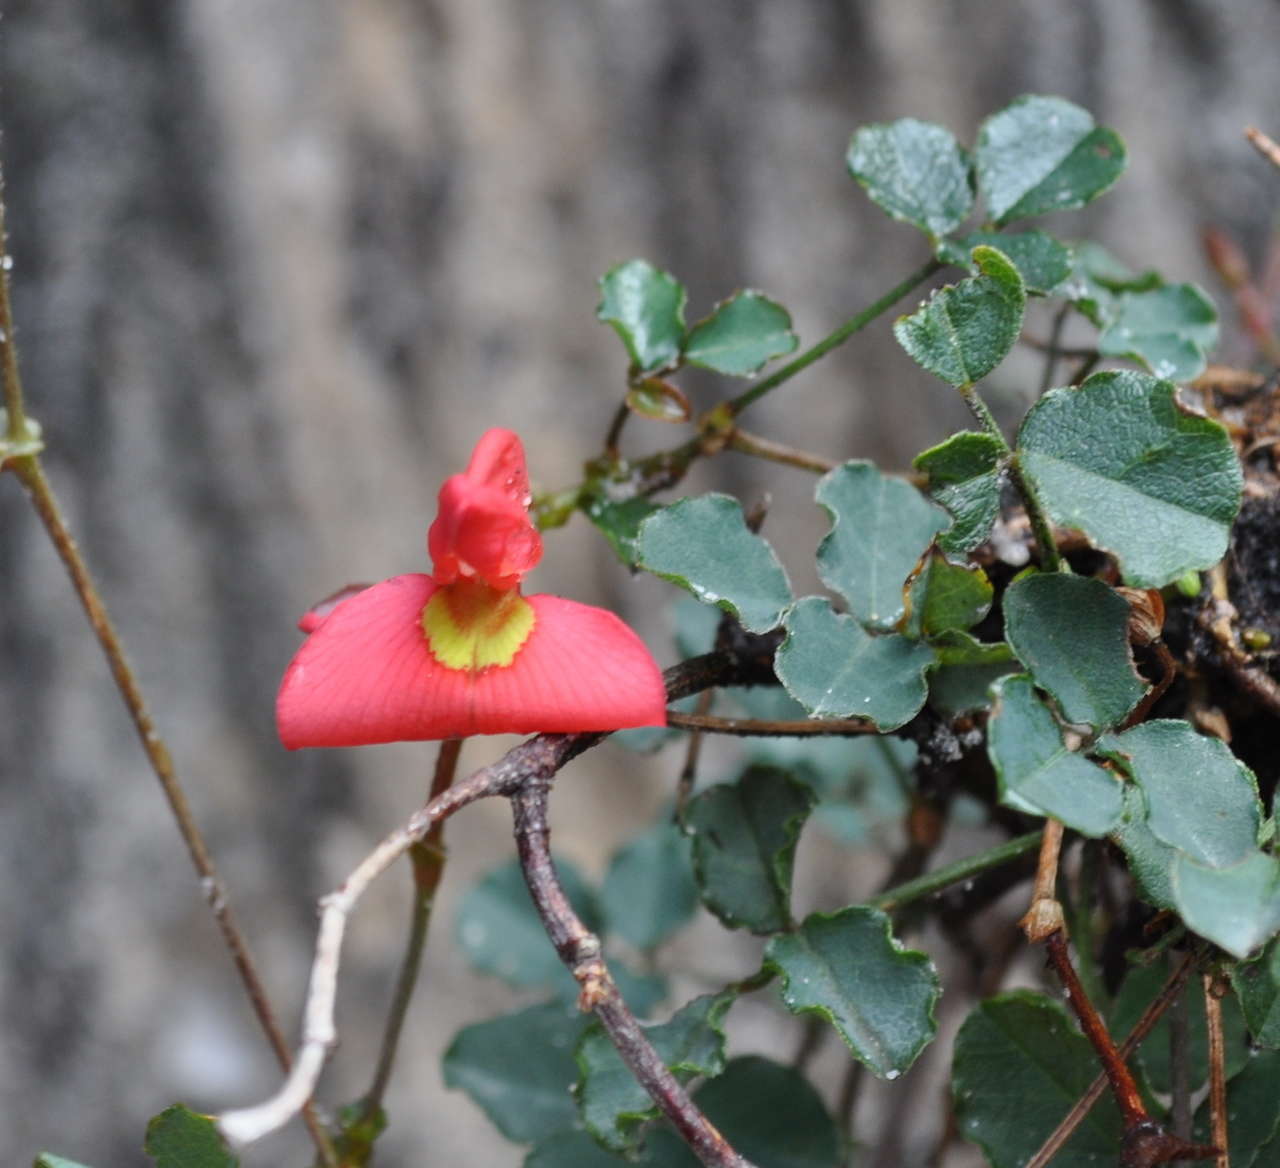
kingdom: Plantae
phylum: Tracheophyta
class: Magnoliopsida
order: Fabales
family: Fabaceae
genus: Kennedia
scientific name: Kennedia prostrata
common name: Running-postman
